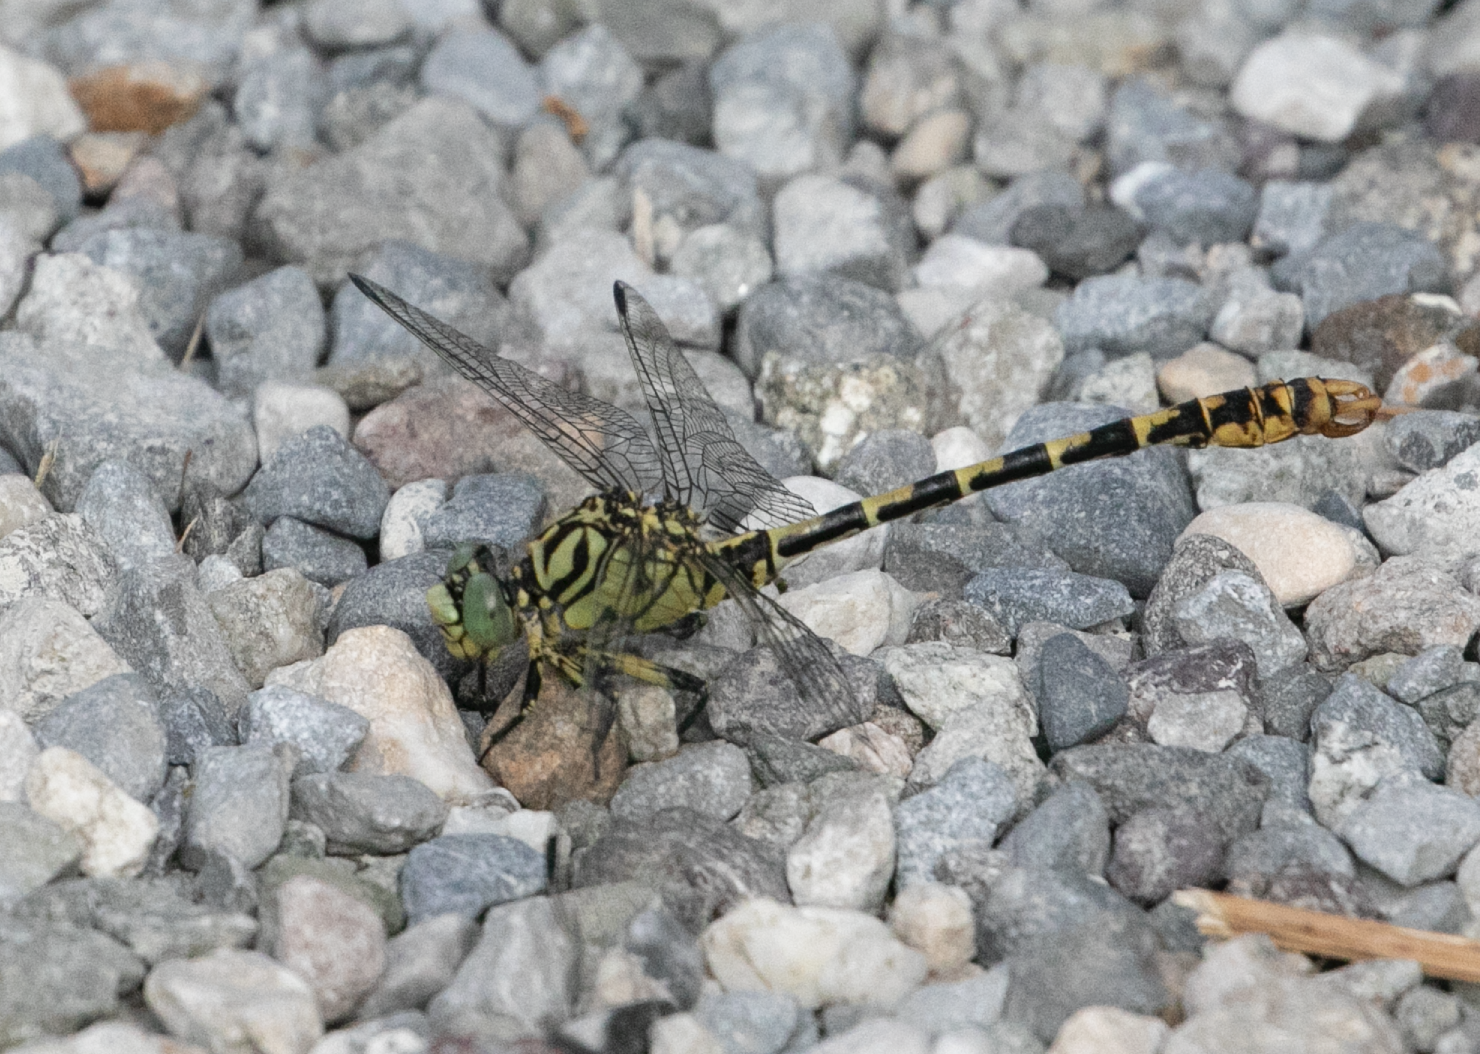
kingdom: Animalia
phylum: Arthropoda
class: Insecta
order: Odonata
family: Gomphidae
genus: Onychogomphus
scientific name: Onychogomphus forcipatus
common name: Small pincertail
